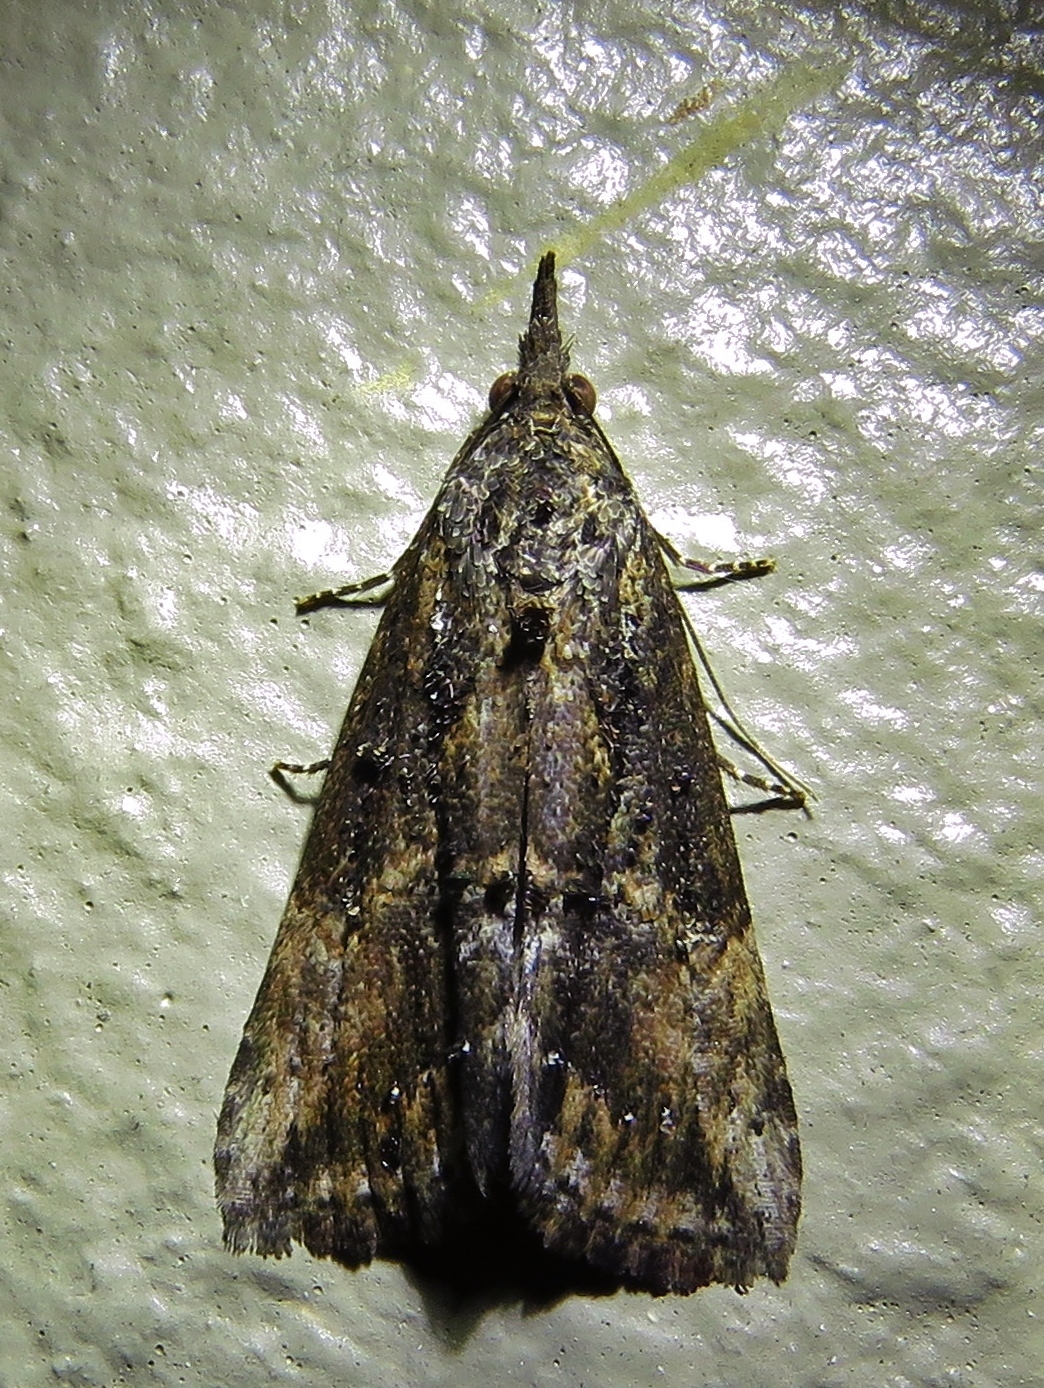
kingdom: Animalia
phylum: Arthropoda
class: Insecta
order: Lepidoptera
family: Erebidae
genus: Hypena
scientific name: Hypena scabra
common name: Green cloverworm
